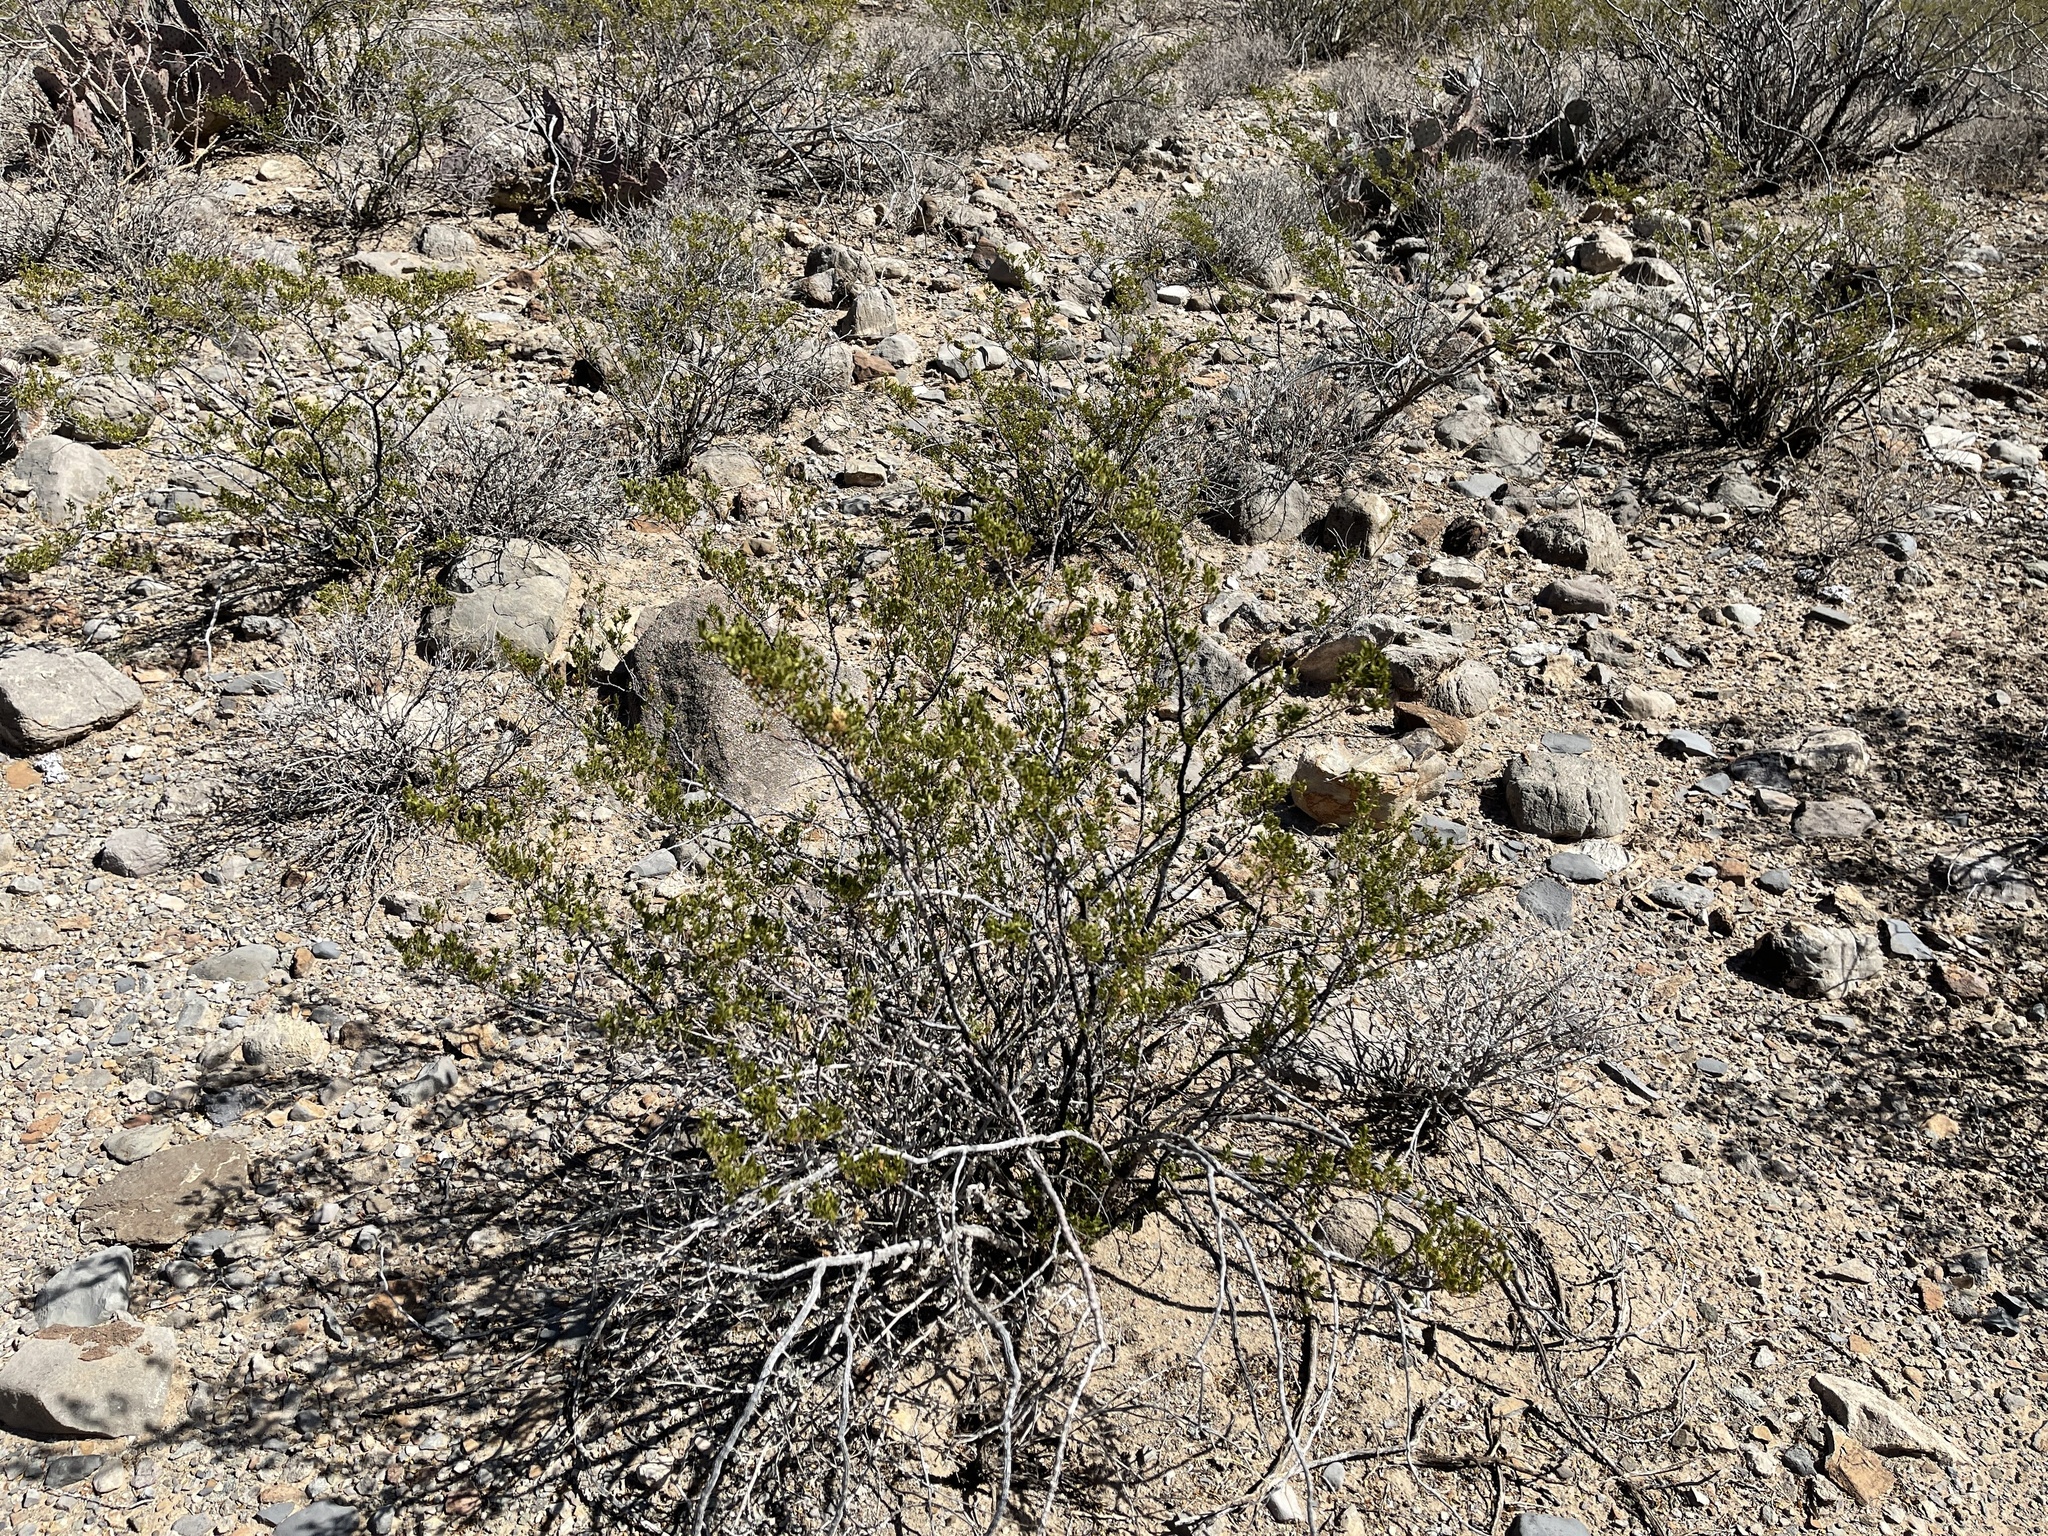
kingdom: Plantae
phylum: Tracheophyta
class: Magnoliopsida
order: Zygophyllales
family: Zygophyllaceae
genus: Larrea
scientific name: Larrea tridentata
